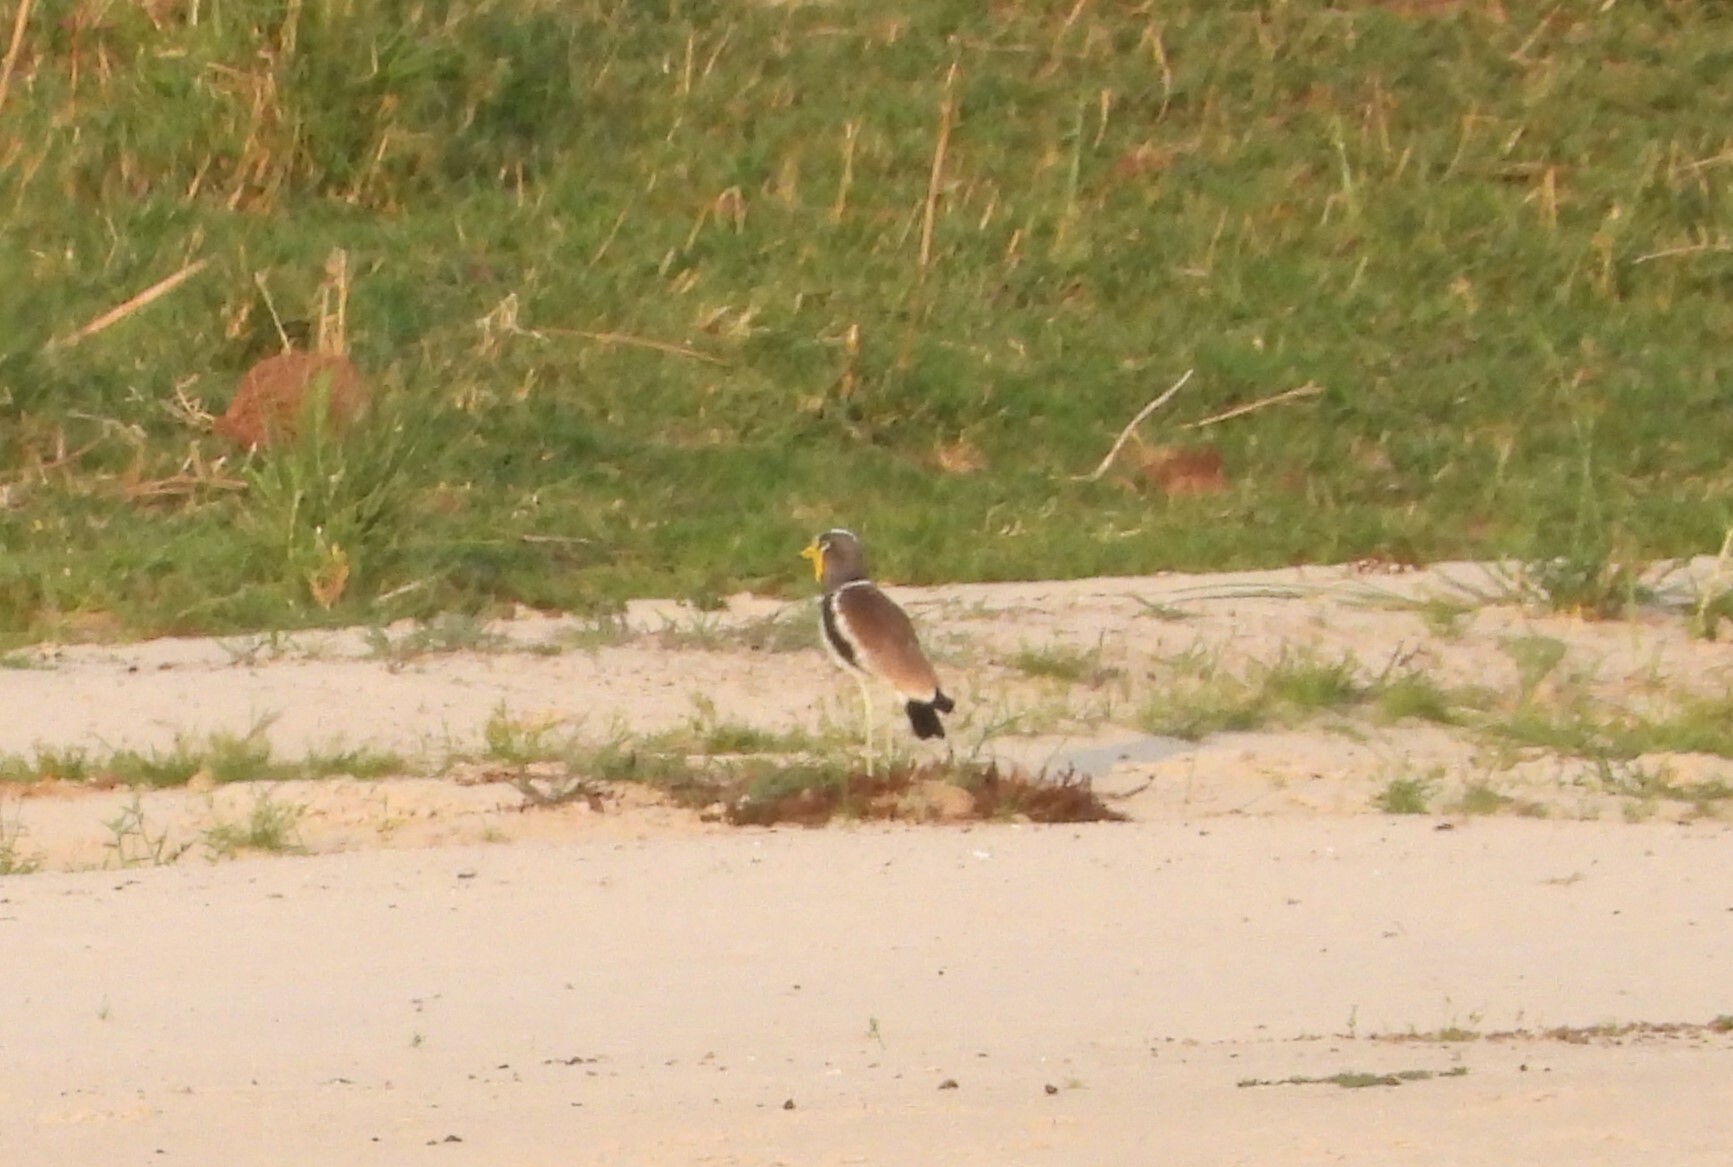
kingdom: Animalia
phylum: Chordata
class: Aves
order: Charadriiformes
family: Charadriidae
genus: Vanellus
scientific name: Vanellus albiceps
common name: White-crowned lapwing
